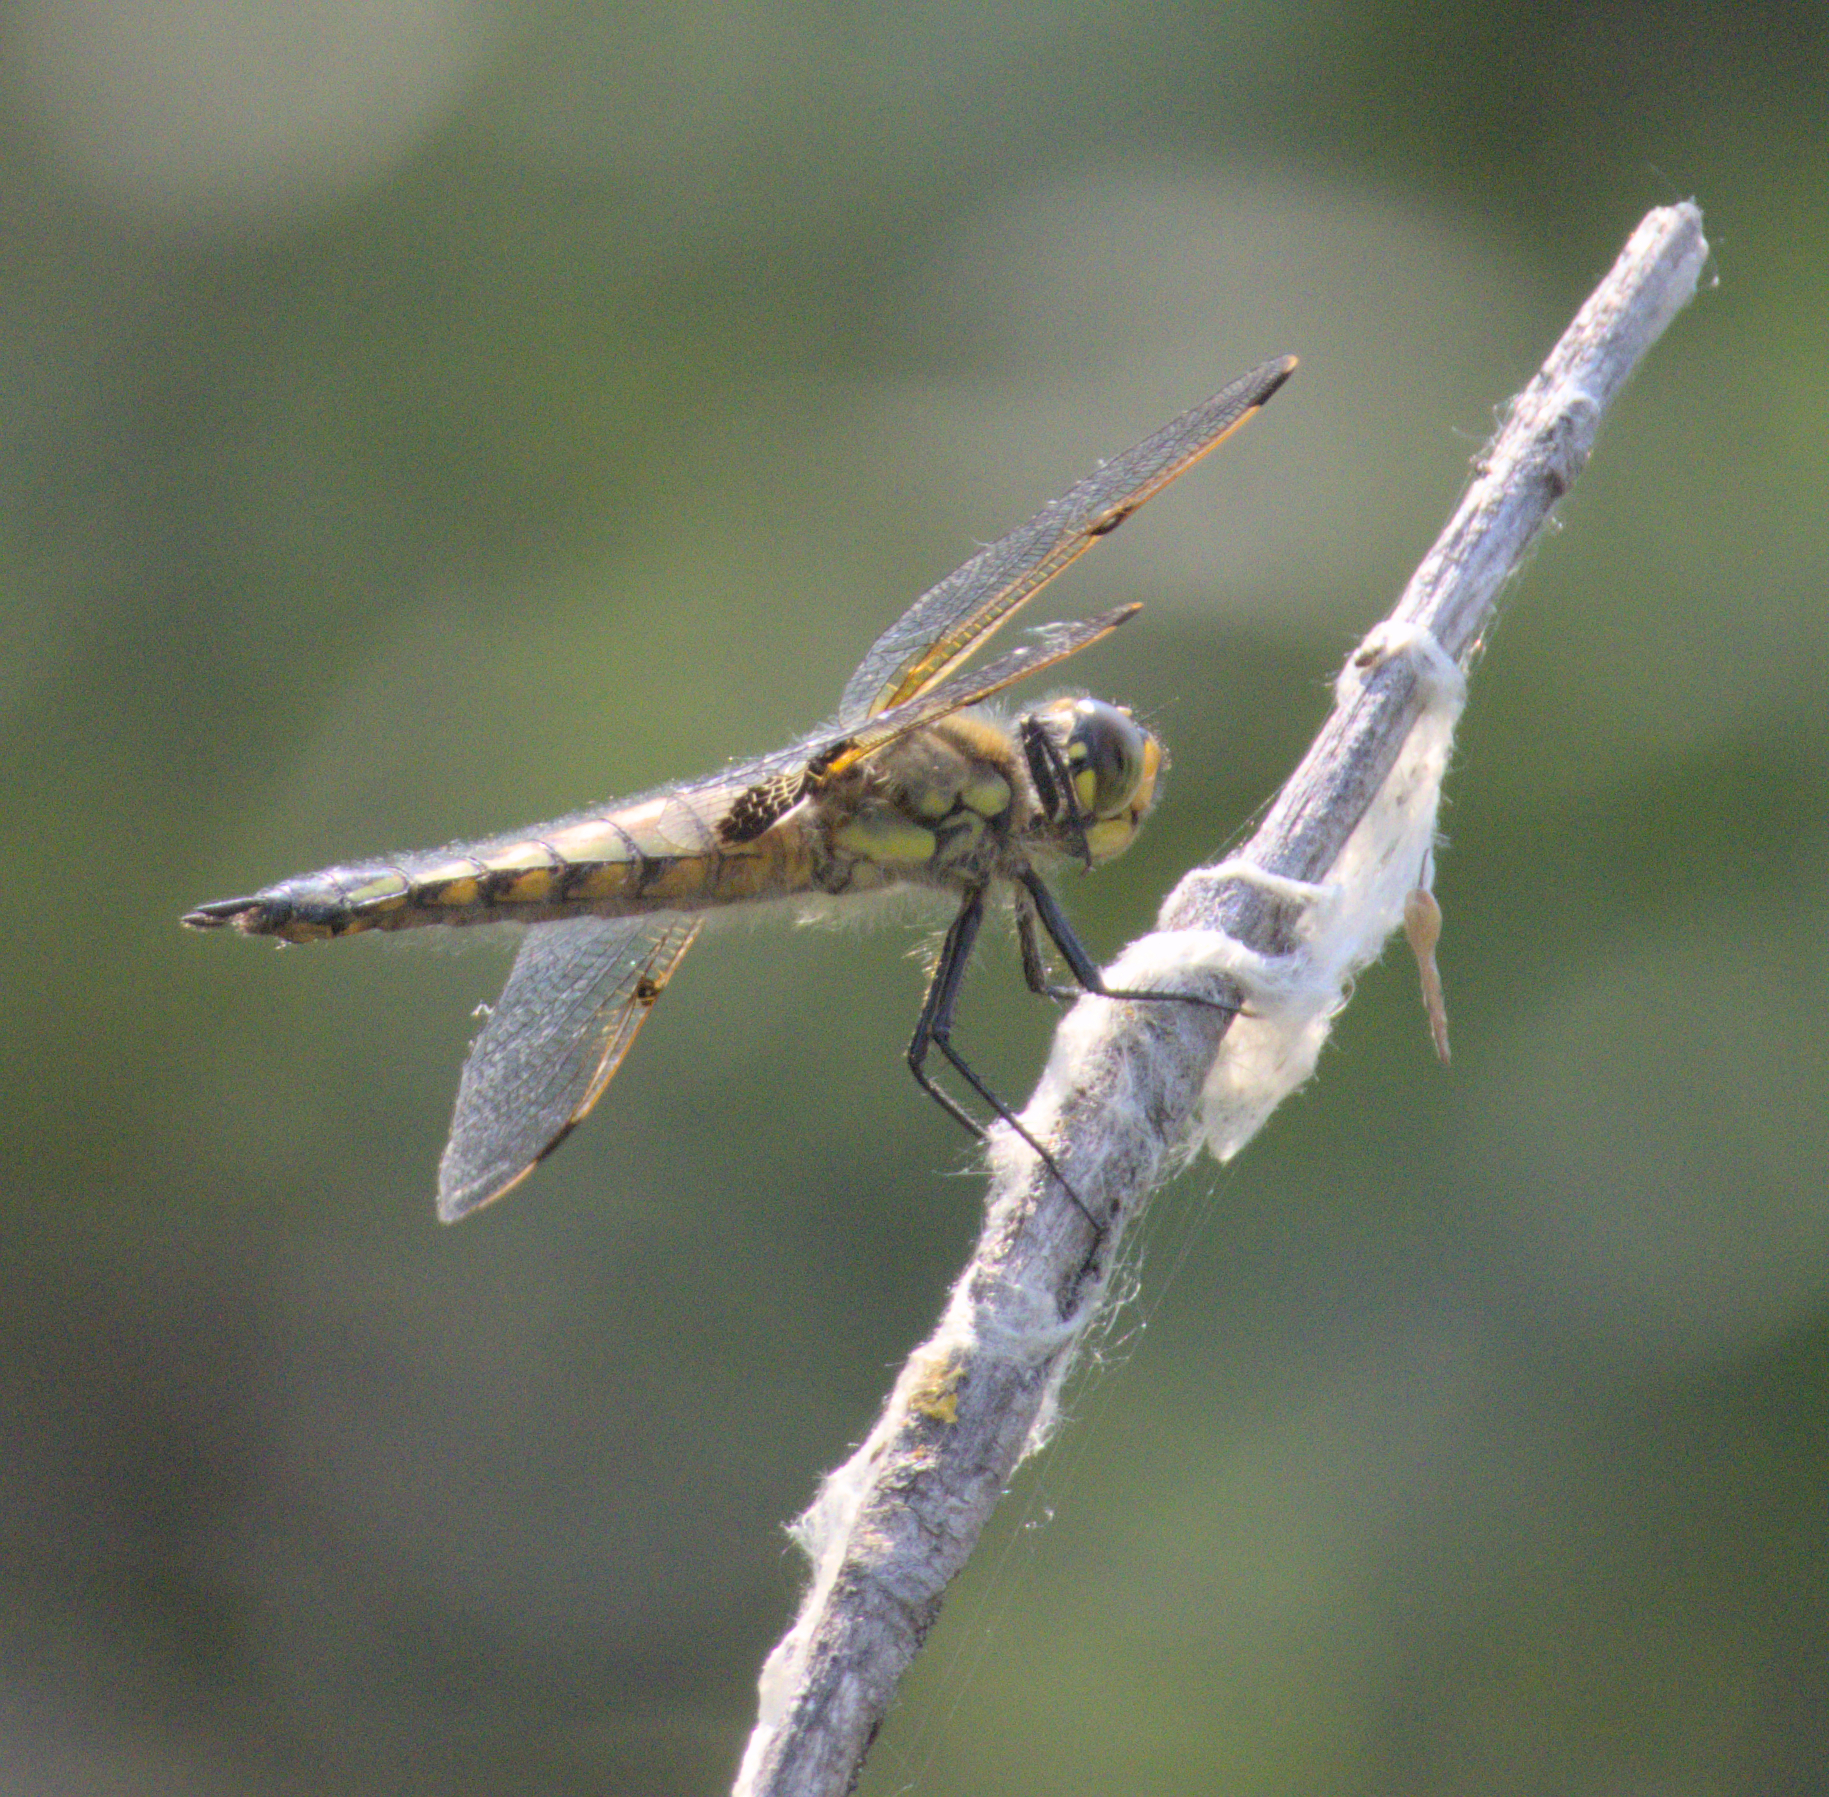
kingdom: Animalia
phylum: Arthropoda
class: Insecta
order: Odonata
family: Libellulidae
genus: Libellula
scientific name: Libellula quadrimaculata
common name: Four-spotted chaser
